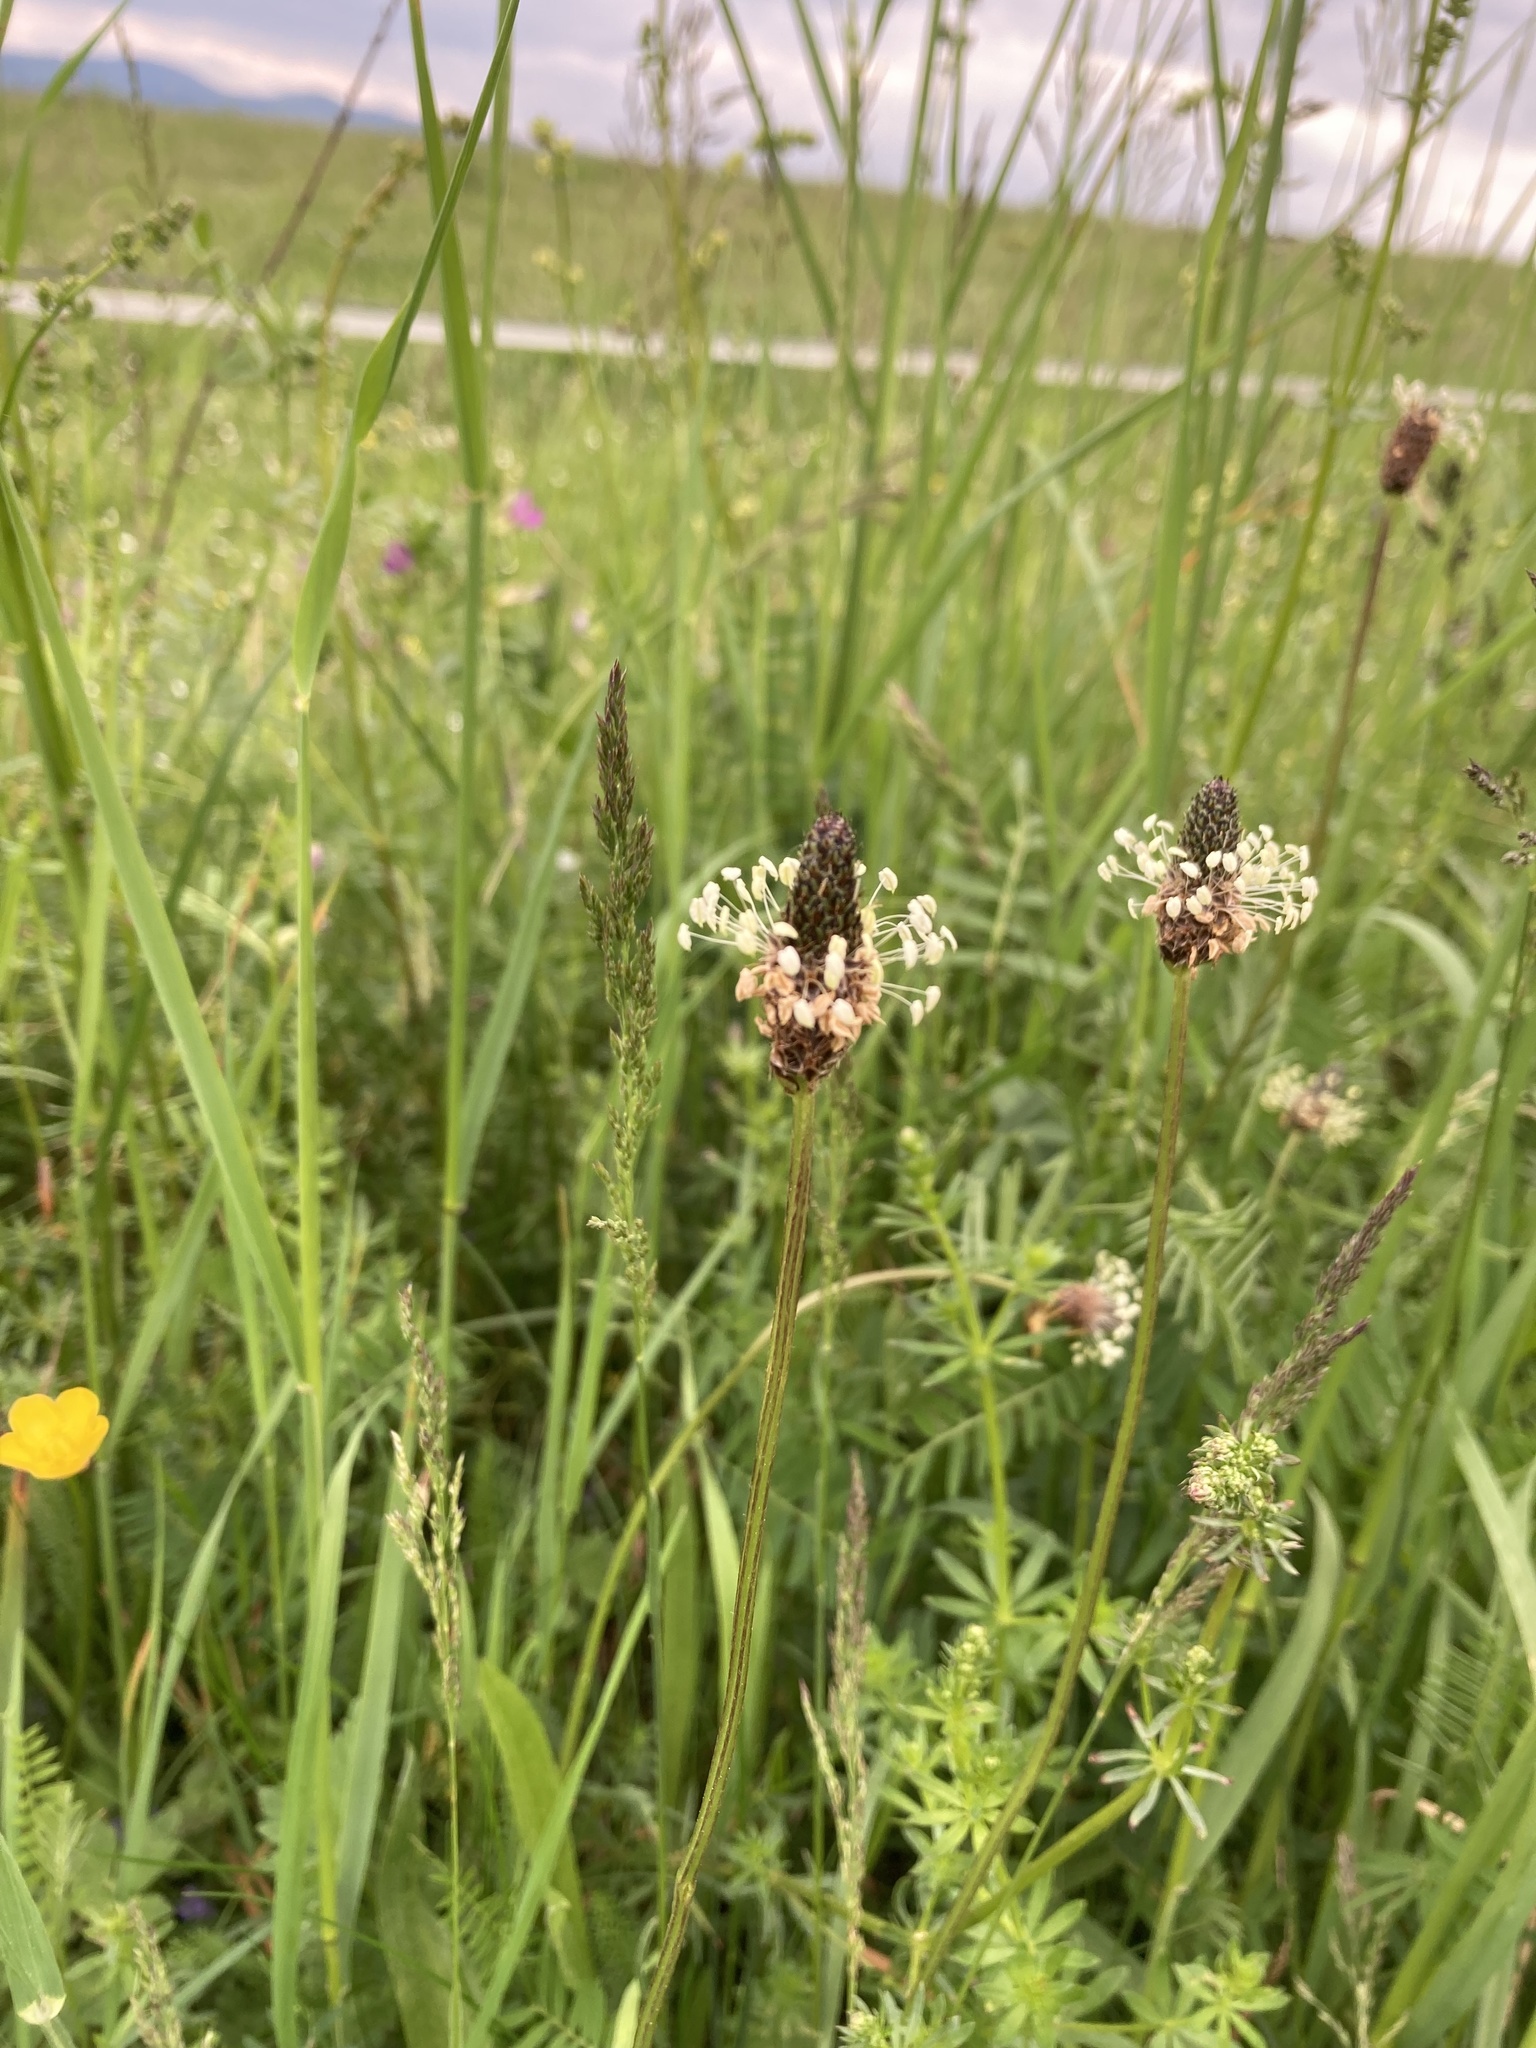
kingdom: Plantae
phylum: Tracheophyta
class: Magnoliopsida
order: Lamiales
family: Plantaginaceae
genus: Plantago
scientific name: Plantago lanceolata
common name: Ribwort plantain
